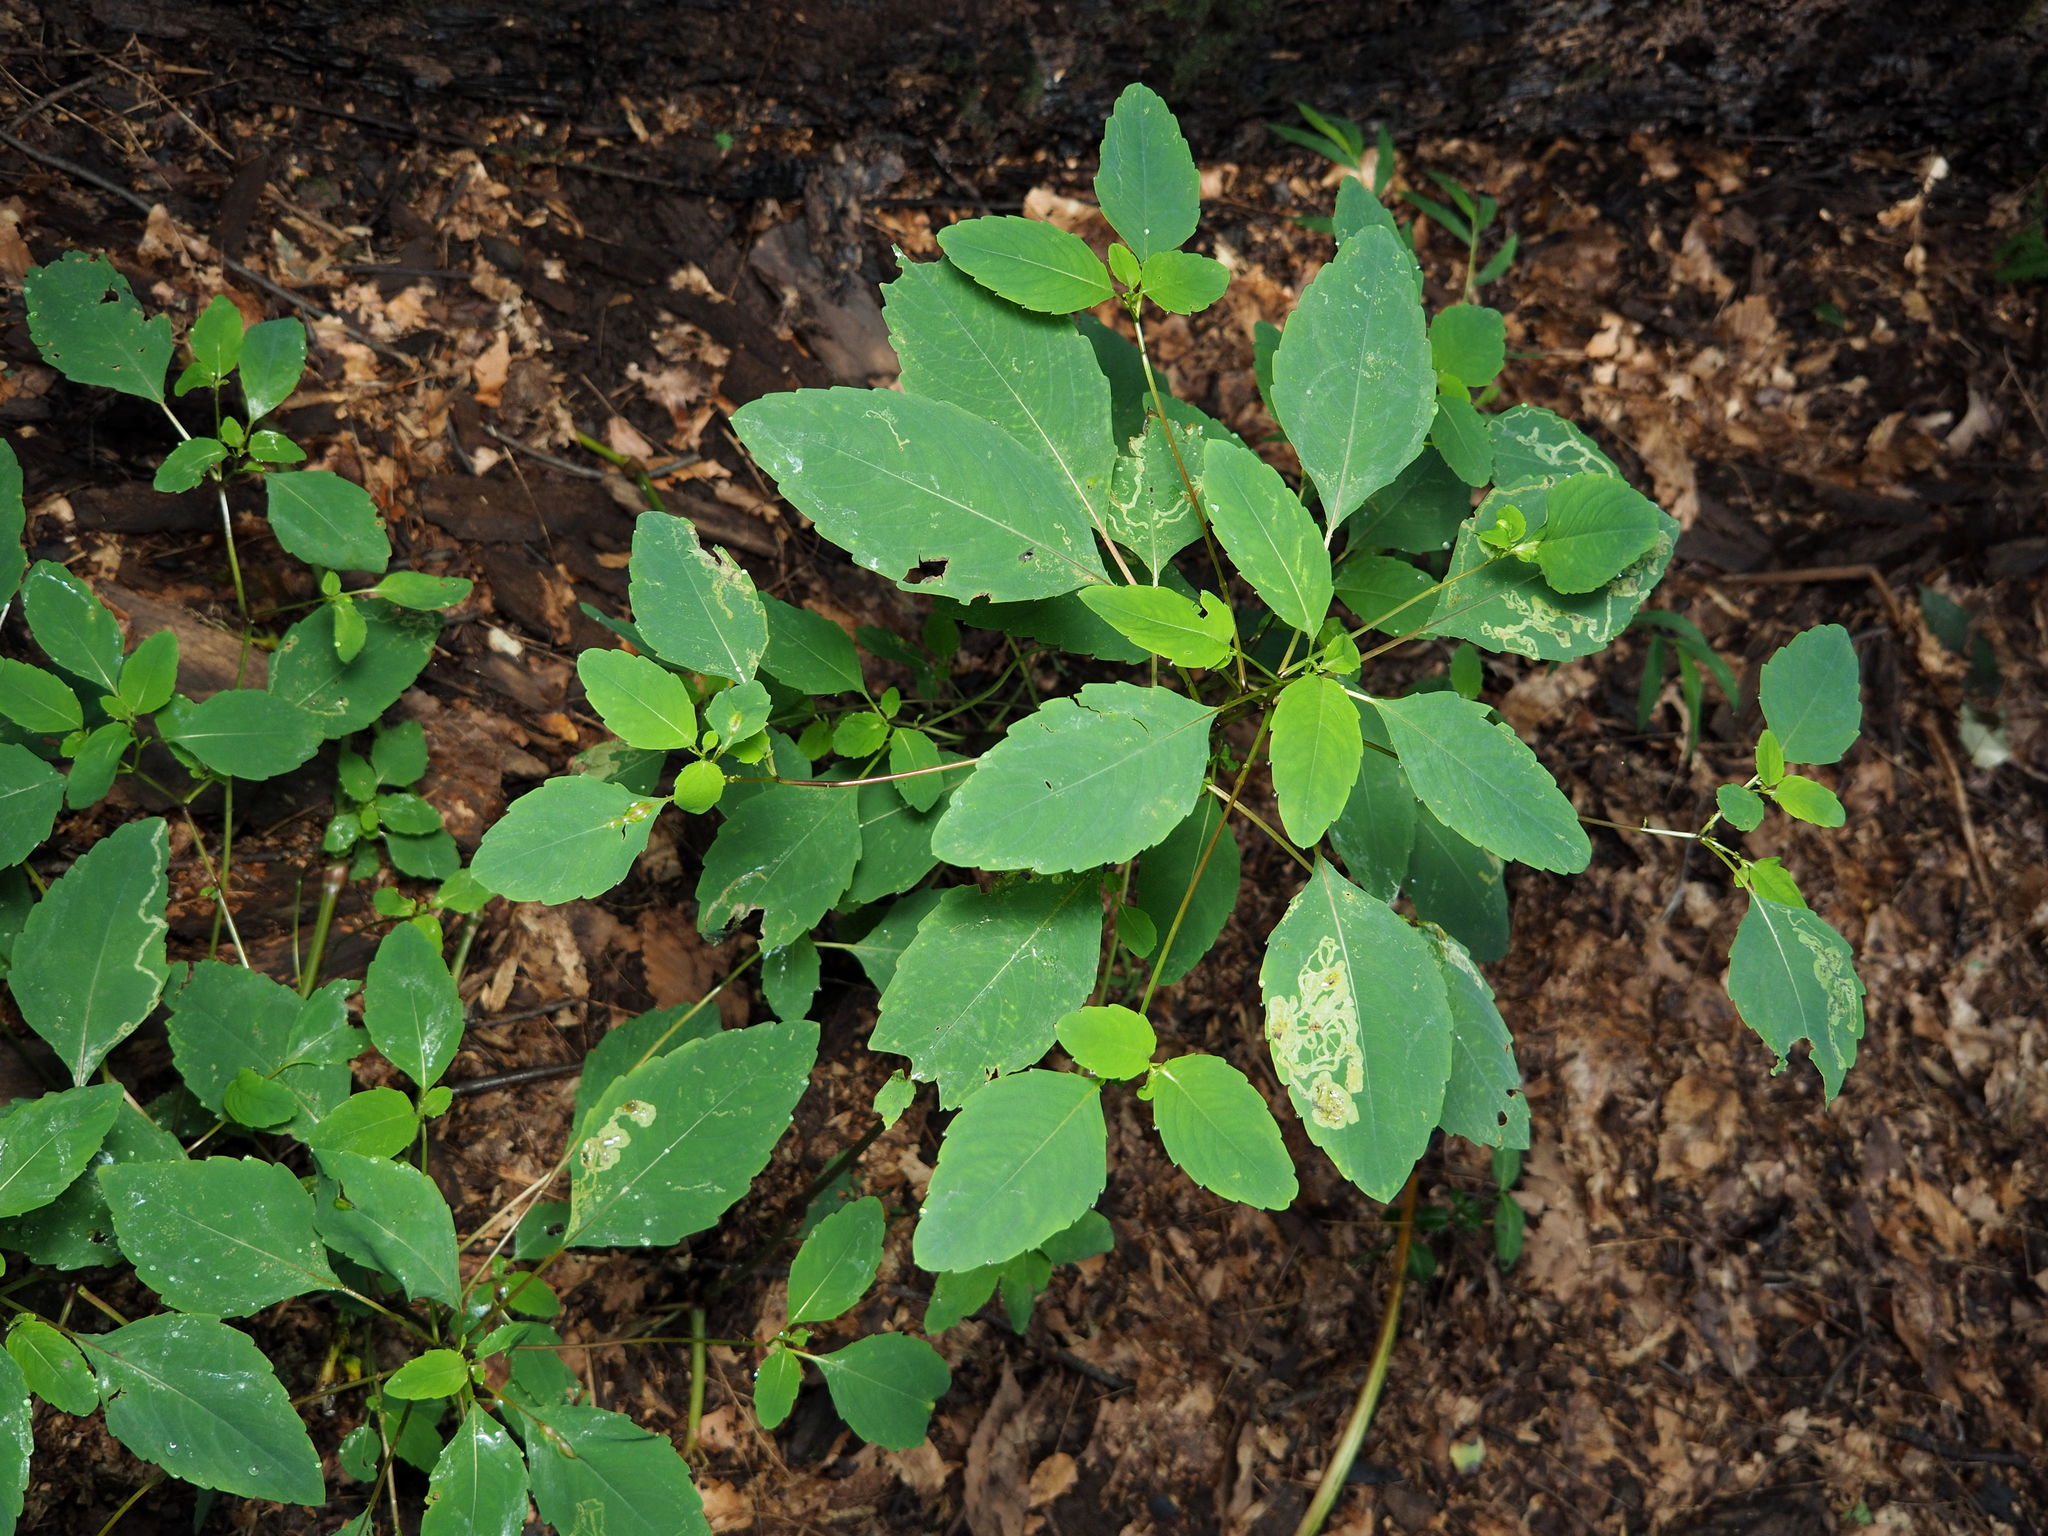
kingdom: Plantae
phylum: Tracheophyta
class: Magnoliopsida
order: Ericales
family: Balsaminaceae
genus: Impatiens
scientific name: Impatiens capensis
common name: Orange balsam
